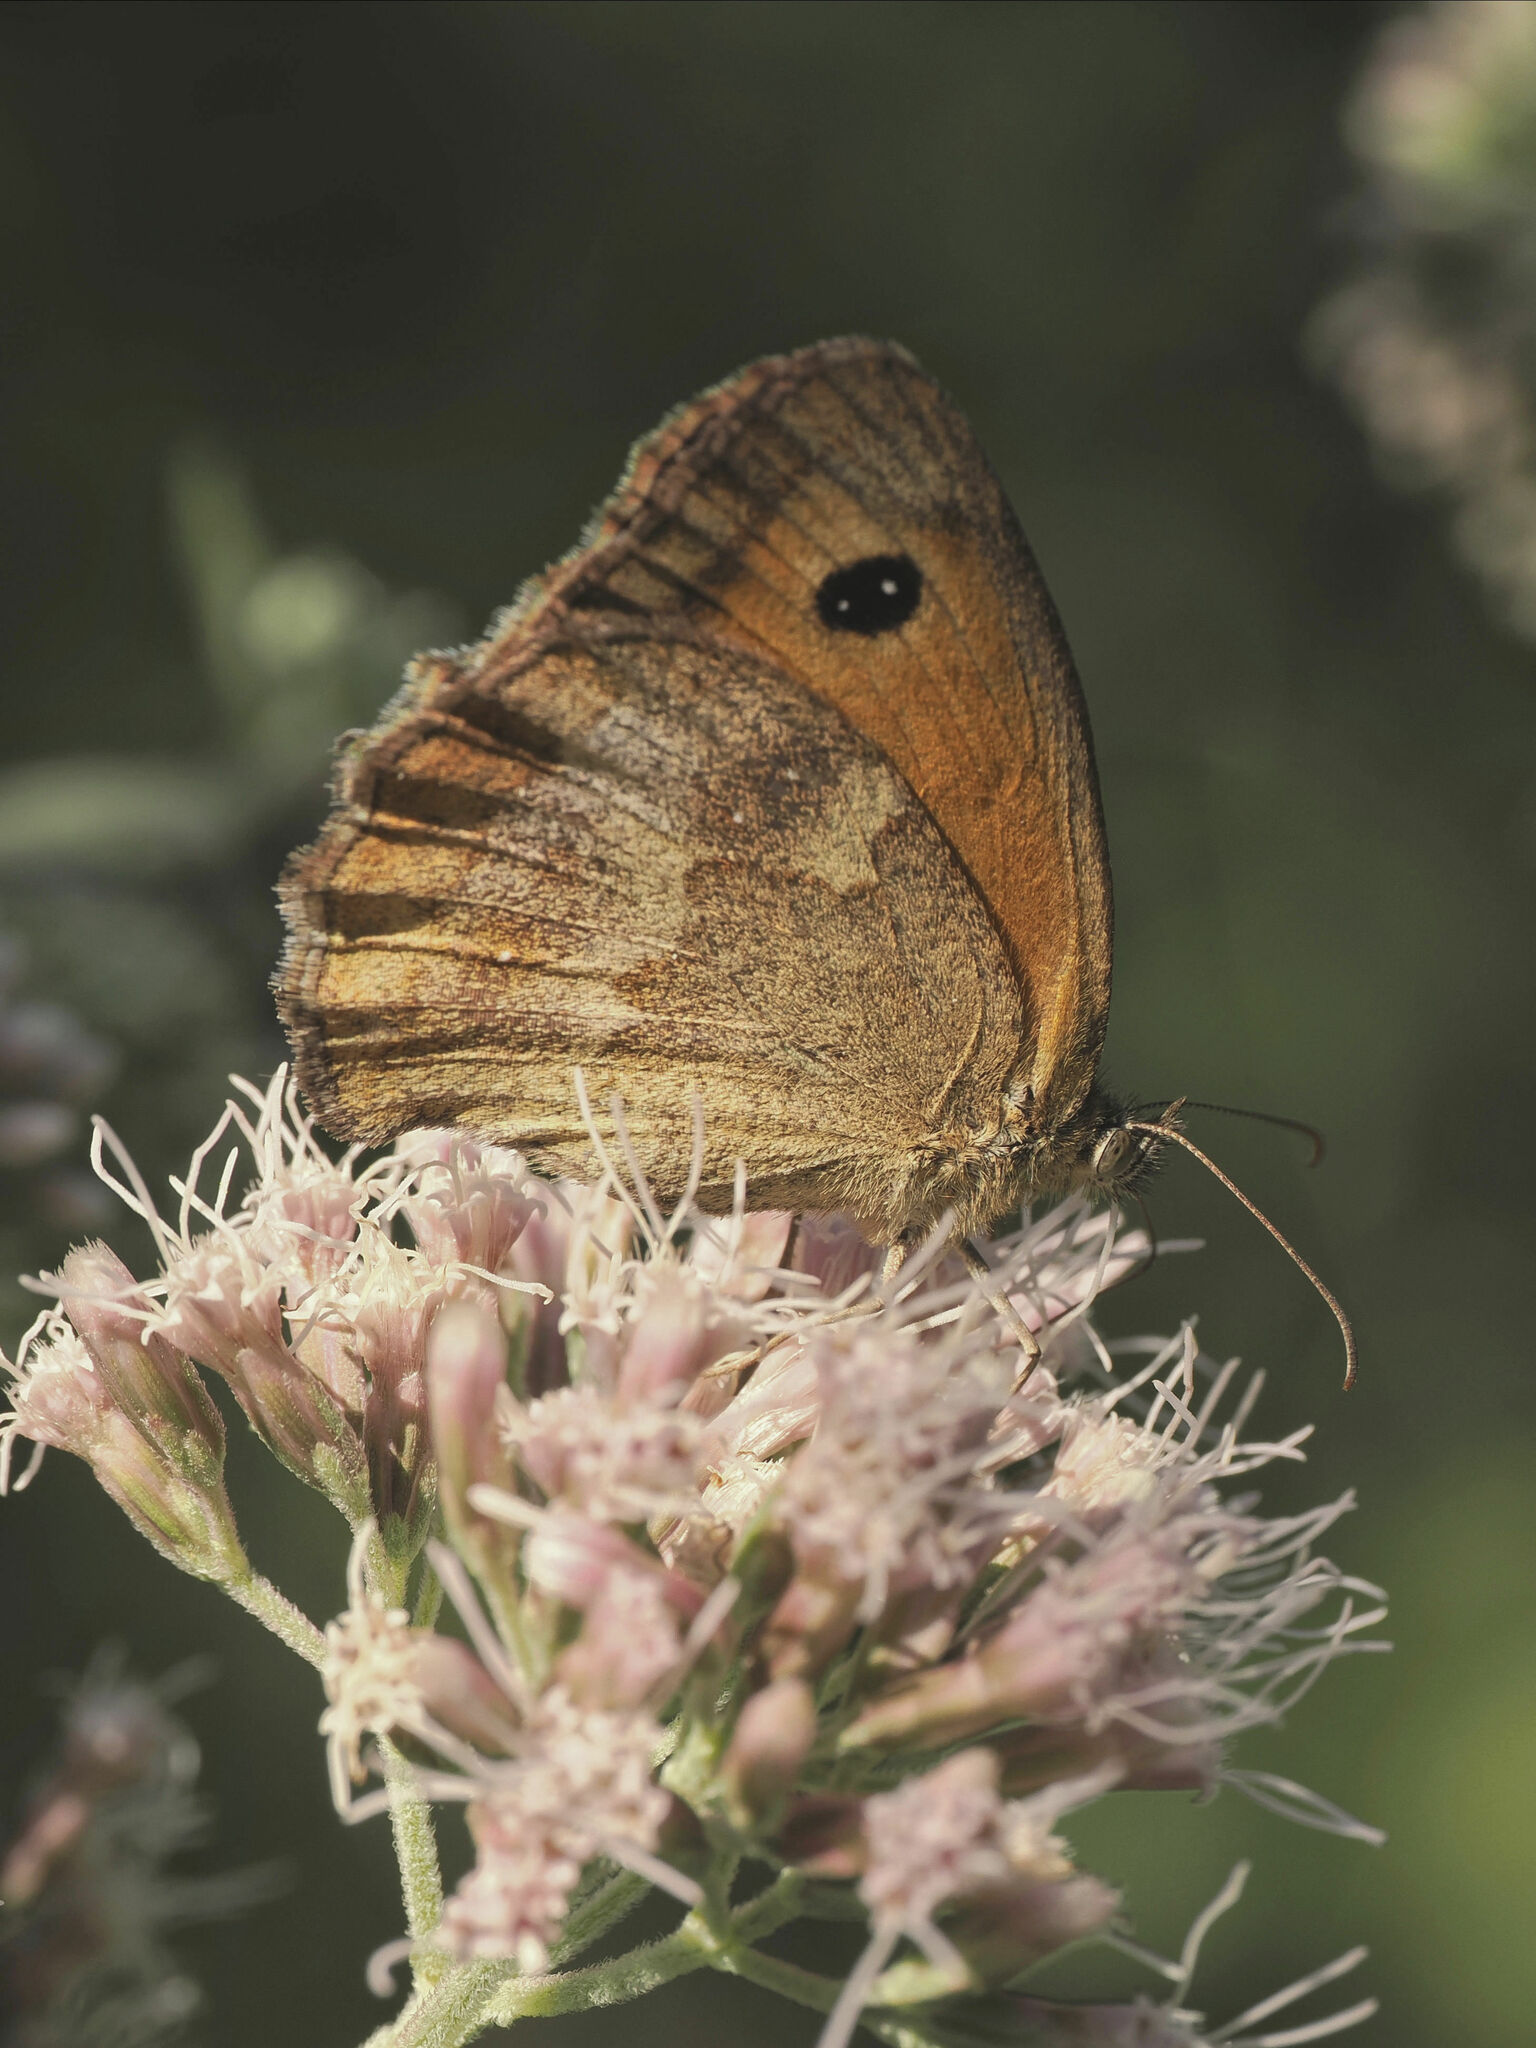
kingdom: Animalia
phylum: Arthropoda
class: Insecta
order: Lepidoptera
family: Nymphalidae
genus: Pyronia
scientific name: Pyronia tithonus
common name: Gatekeeper
